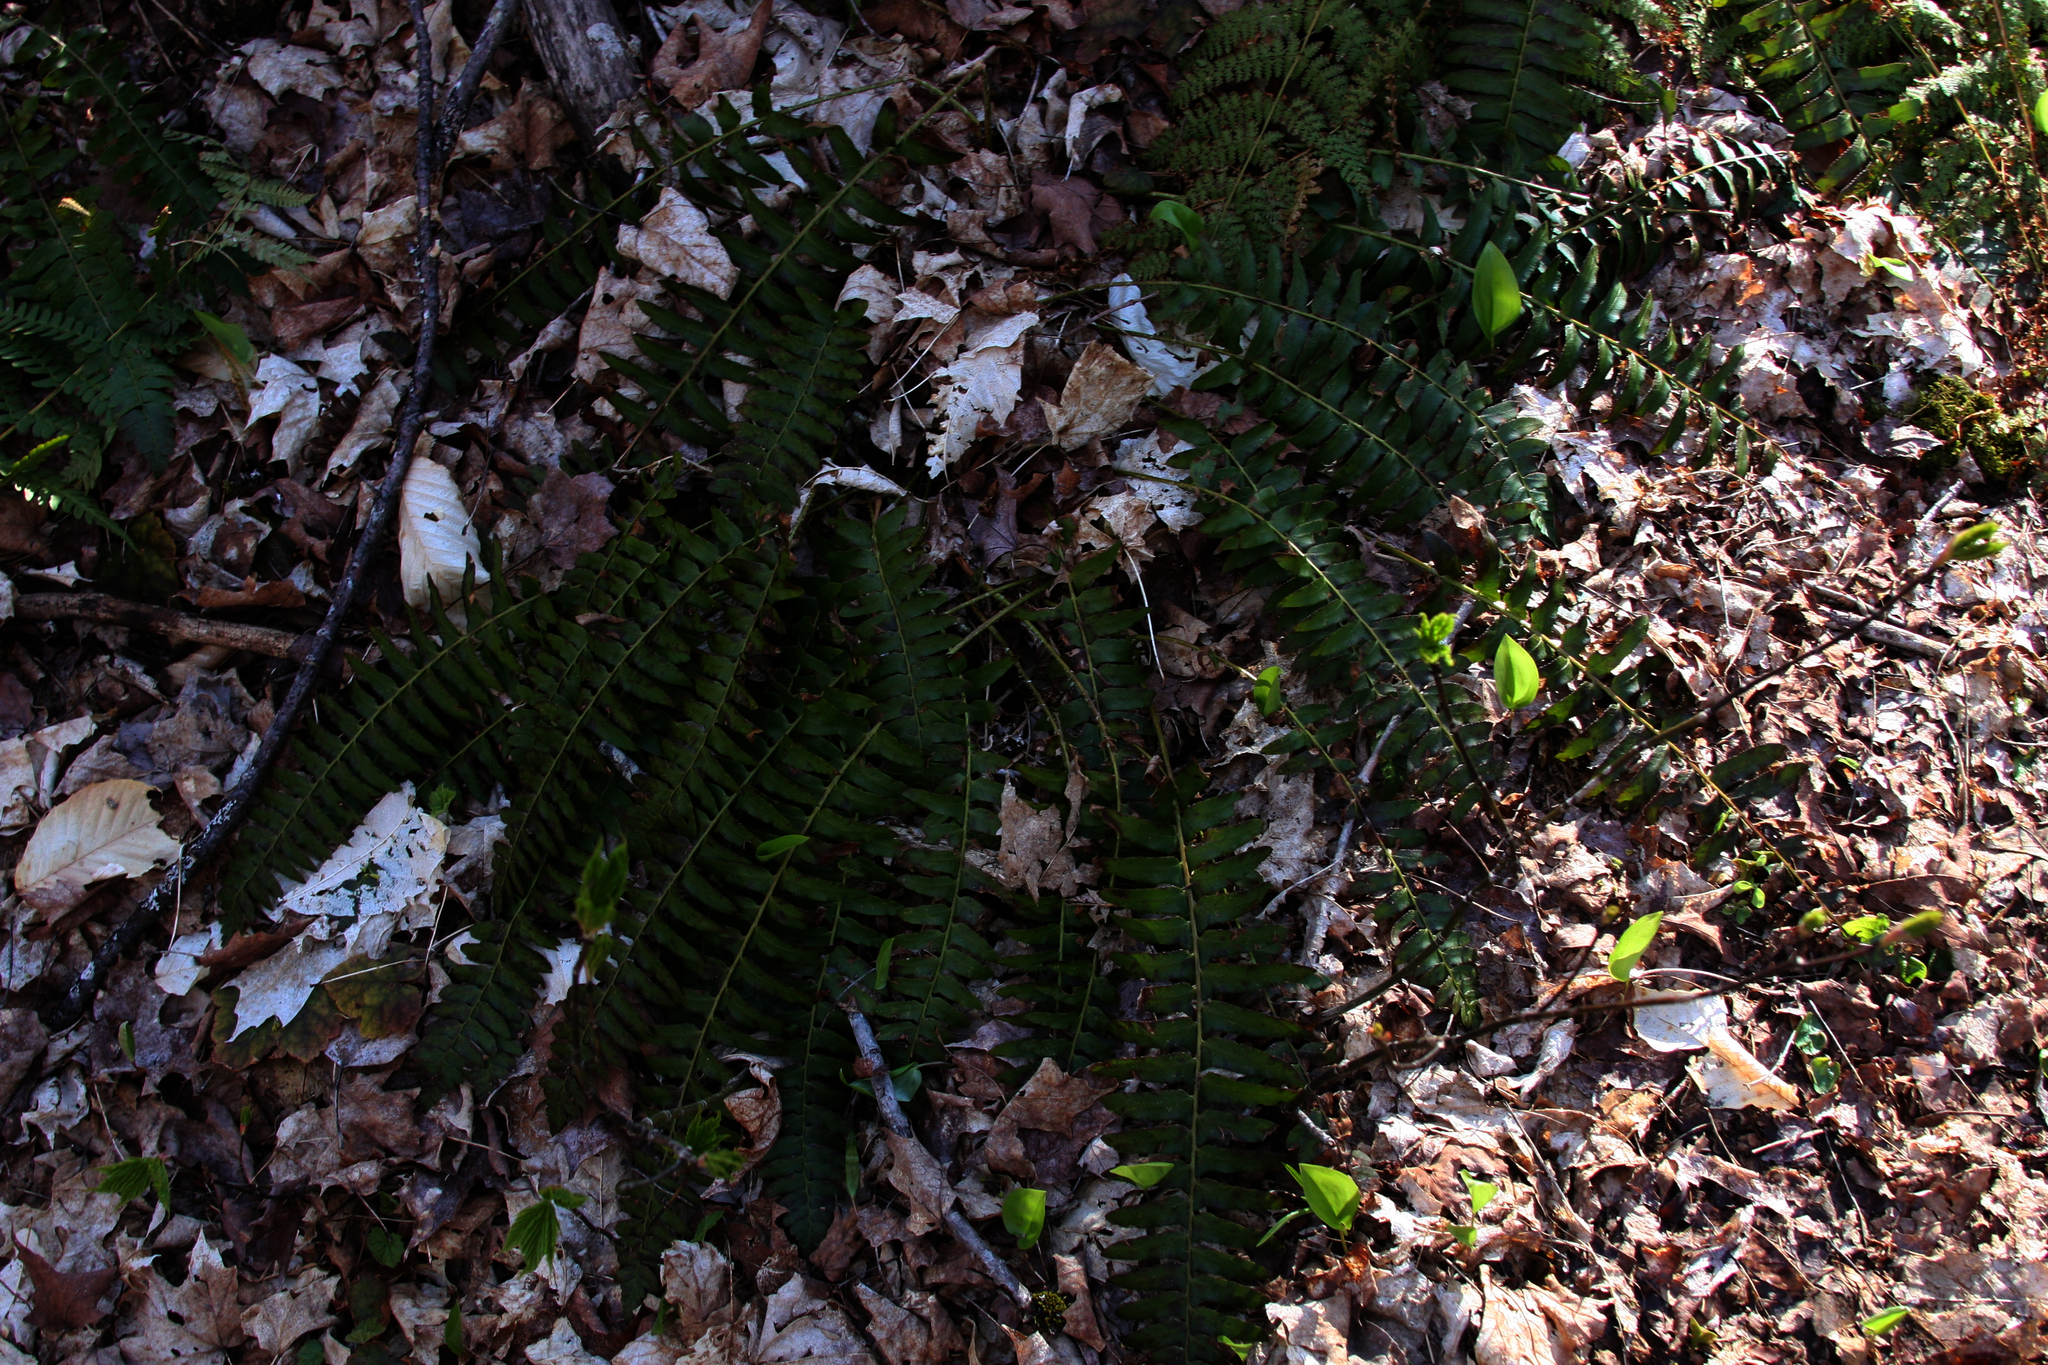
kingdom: Plantae
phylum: Tracheophyta
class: Polypodiopsida
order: Polypodiales
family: Dryopteridaceae
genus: Polystichum
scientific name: Polystichum acrostichoides
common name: Christmas fern
